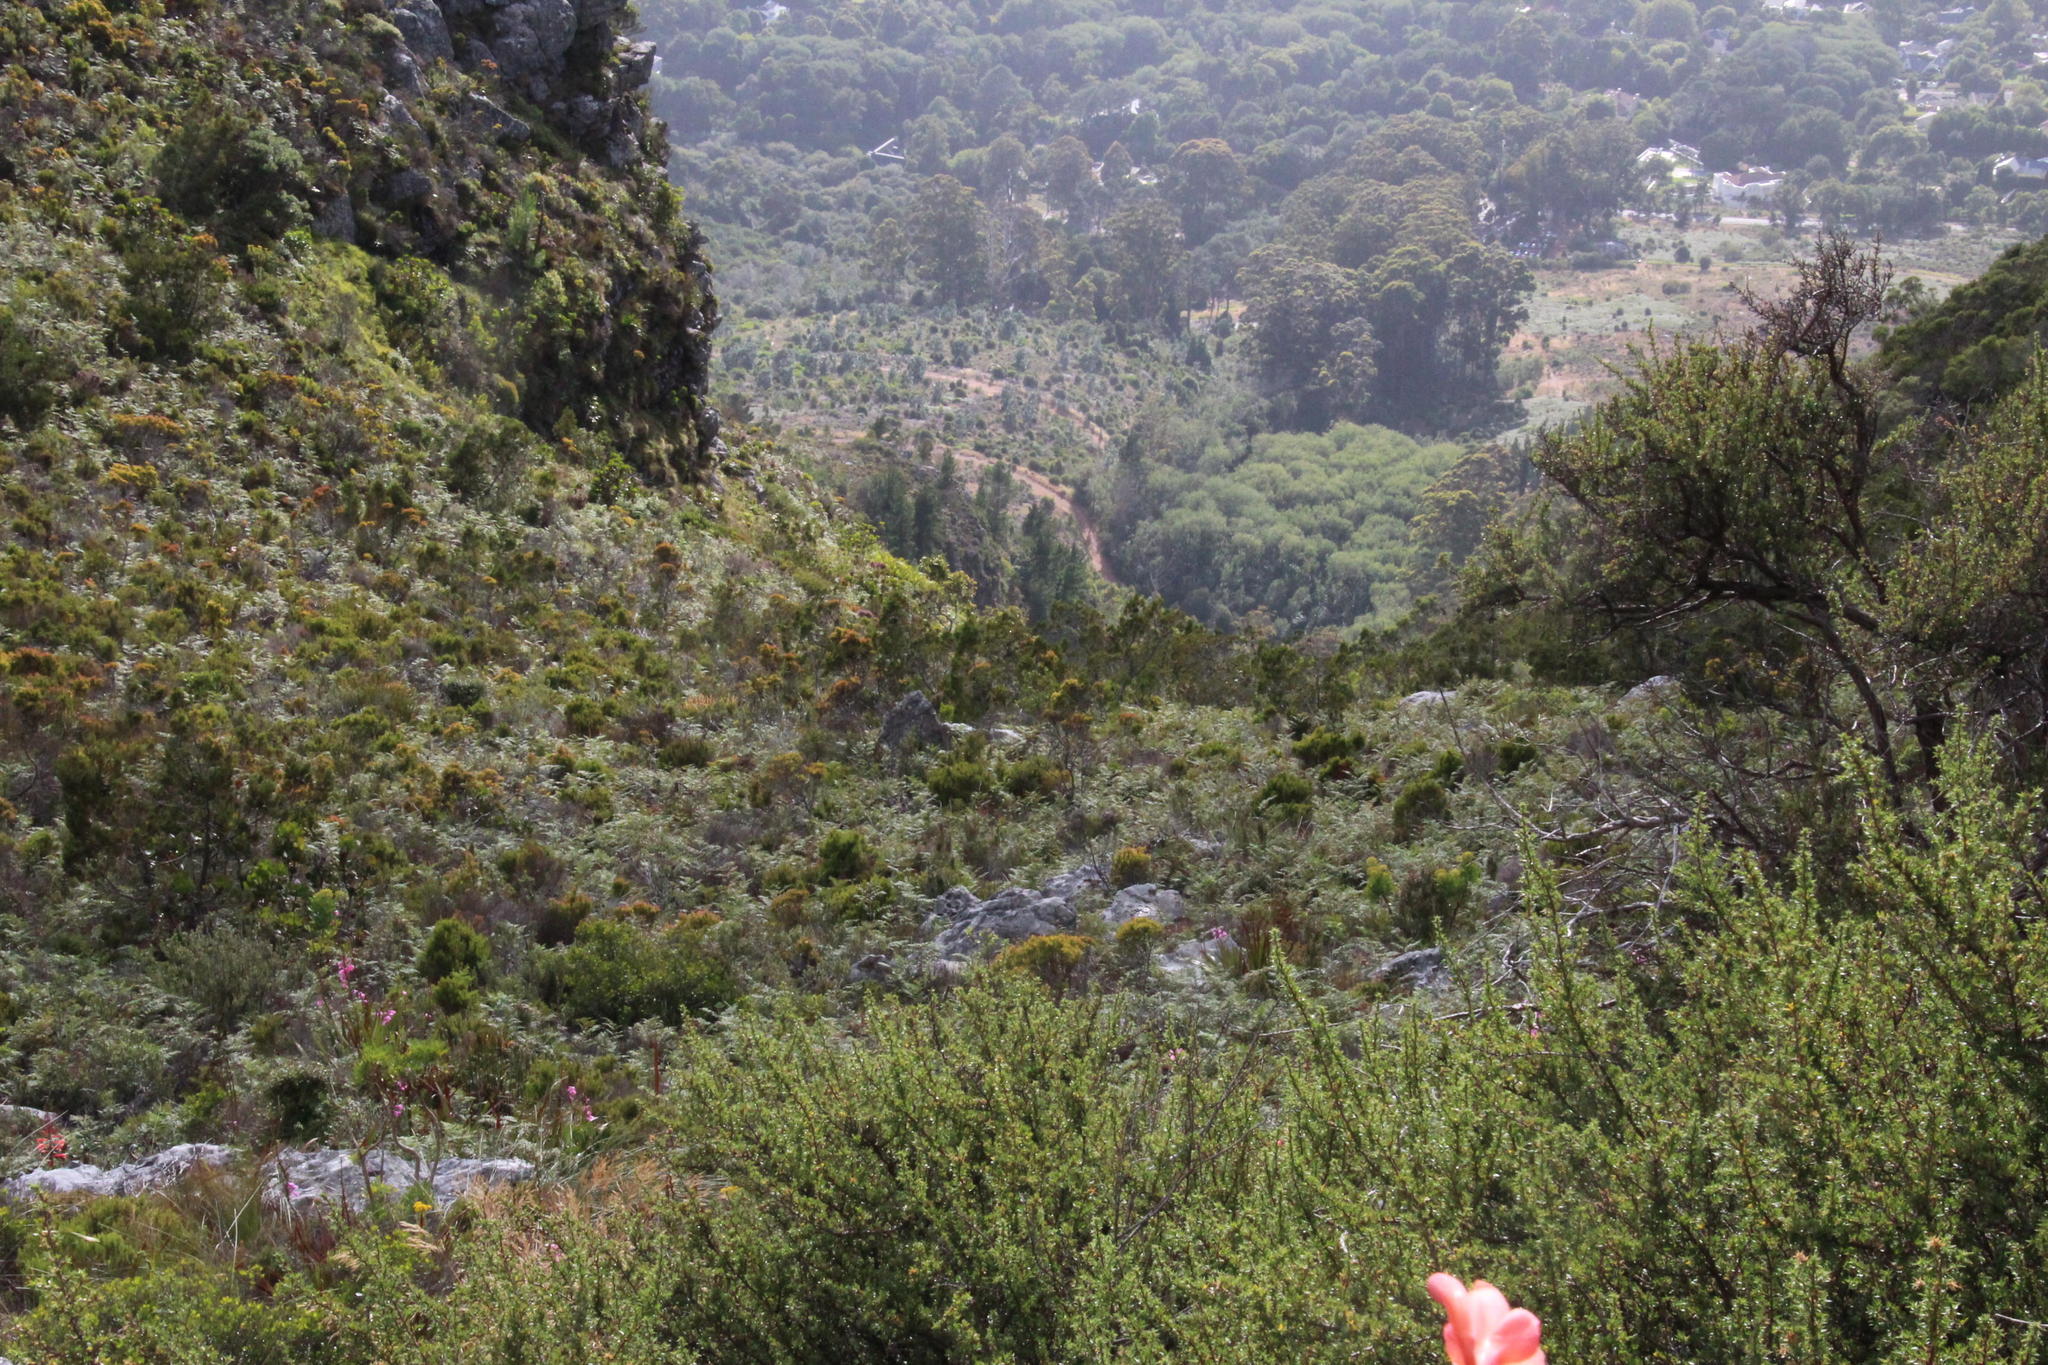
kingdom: Plantae
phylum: Tracheophyta
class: Pinopsida
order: Pinales
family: Cupressaceae
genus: Widdringtonia
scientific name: Widdringtonia nodiflora
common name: Cape cypress
